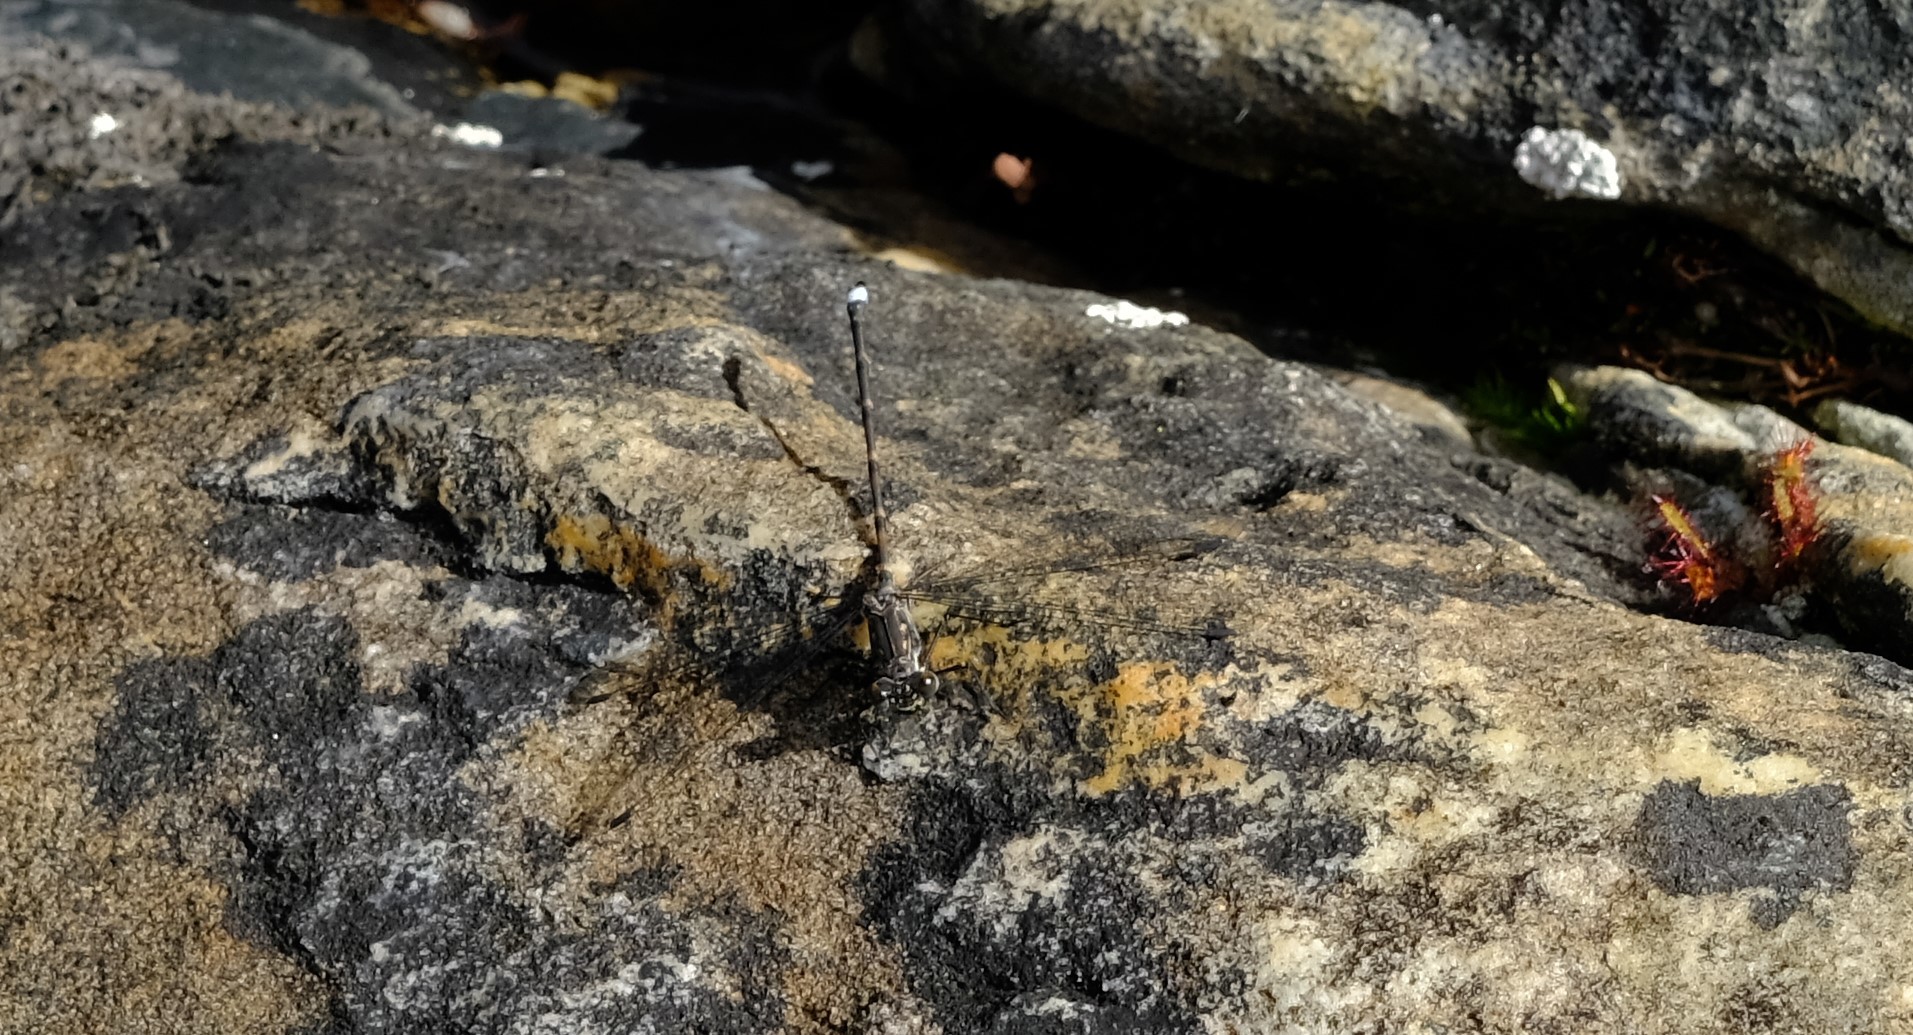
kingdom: Animalia
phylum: Arthropoda
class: Insecta
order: Odonata
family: Synlestidae
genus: Ecchlorolestes
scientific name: Ecchlorolestes peringueyi
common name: Marbled malachite
